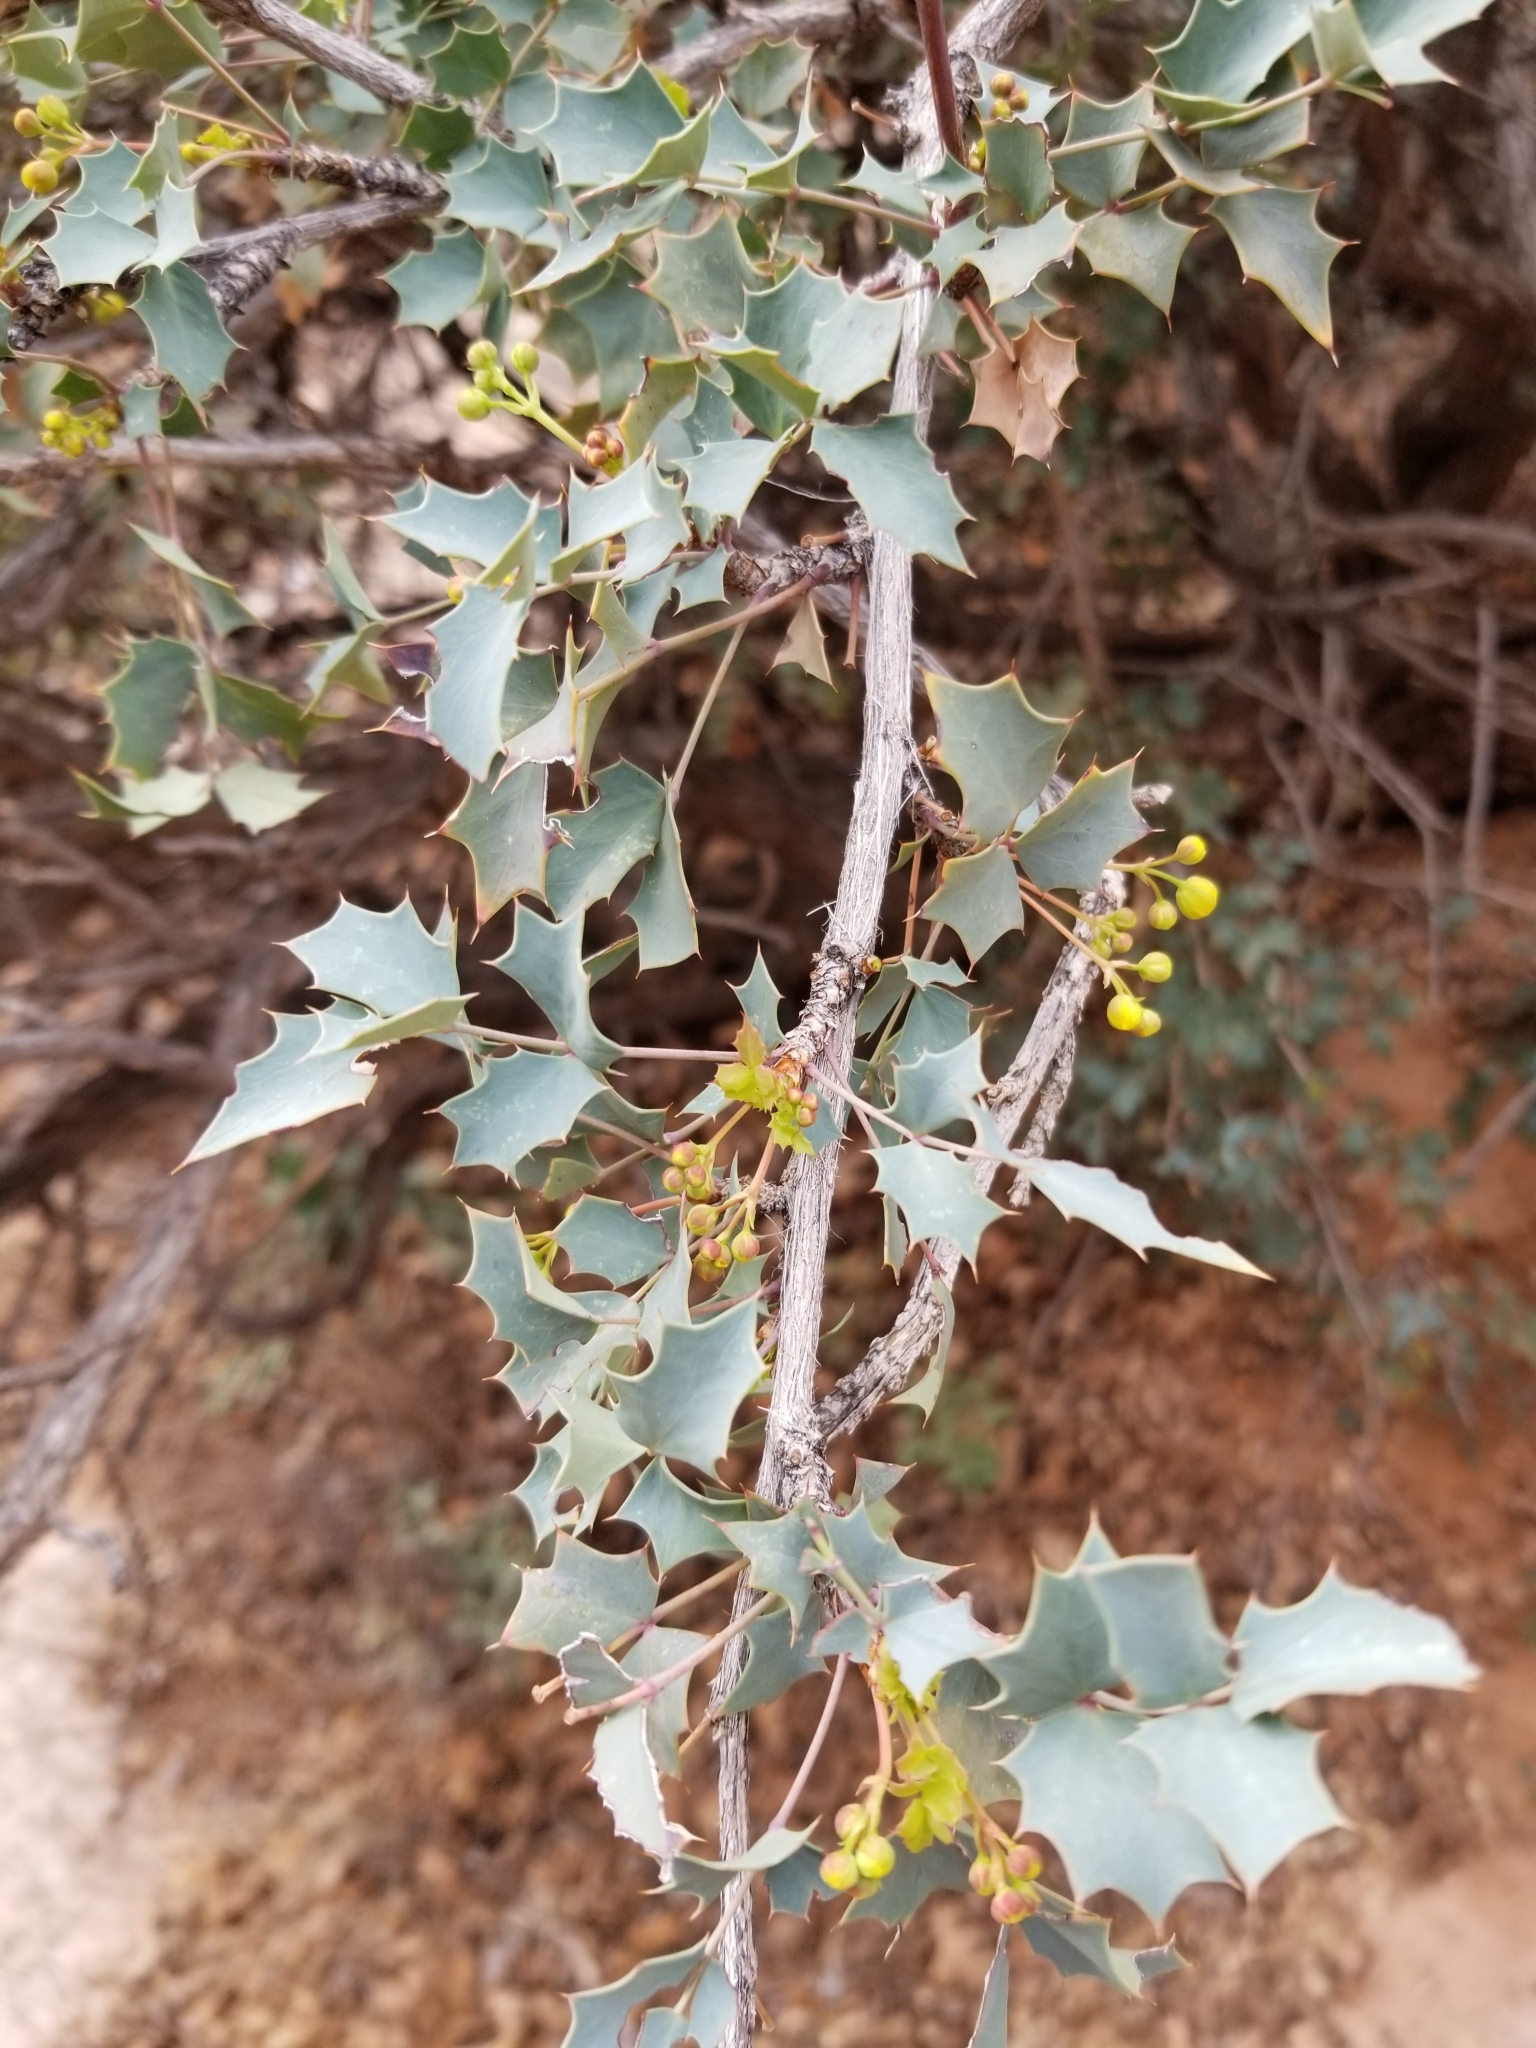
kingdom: Plantae
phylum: Tracheophyta
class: Magnoliopsida
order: Ranunculales
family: Berberidaceae
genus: Alloberberis
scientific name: Alloberberis fremontii
